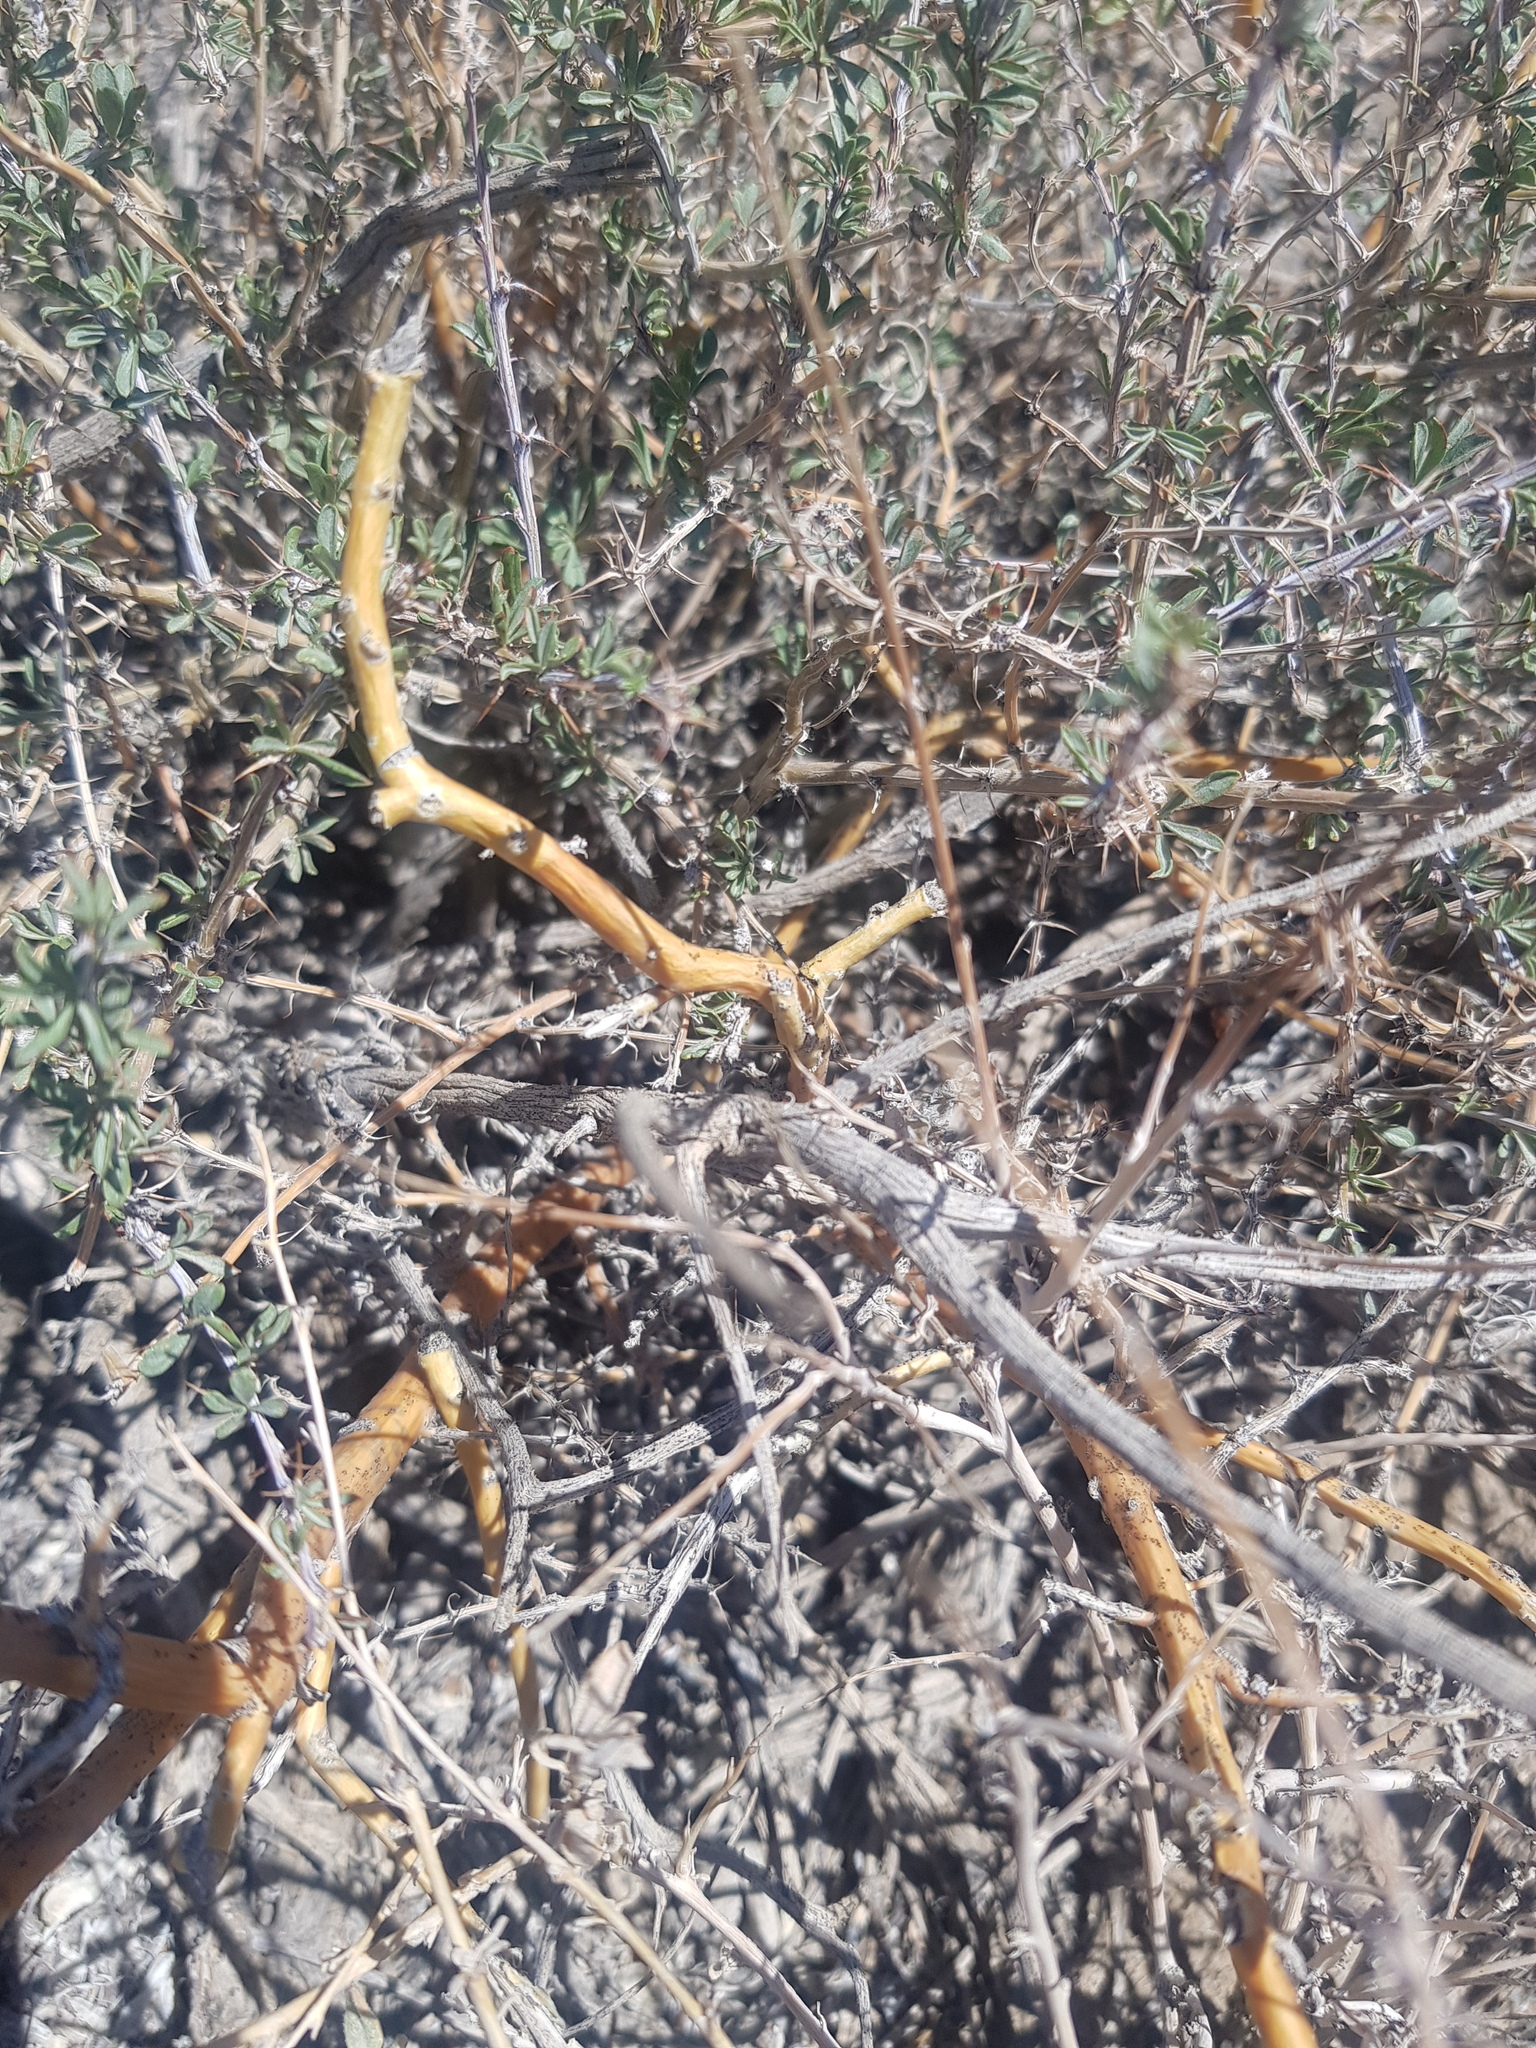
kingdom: Plantae
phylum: Tracheophyta
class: Magnoliopsida
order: Fabales
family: Fabaceae
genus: Caragana
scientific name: Caragana leucophloea
